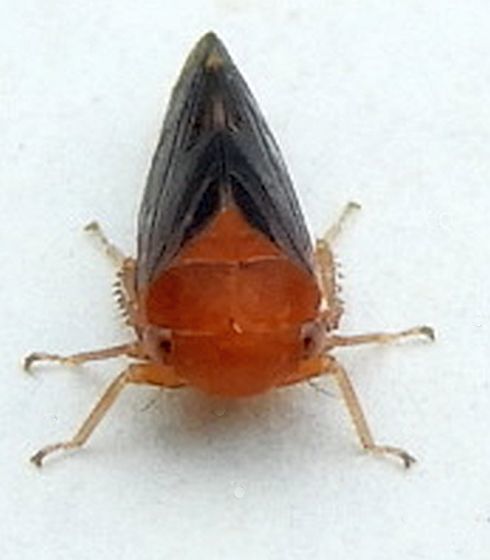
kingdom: Animalia
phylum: Arthropoda
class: Insecta
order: Hemiptera
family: Cicadellidae
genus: Oncopsis
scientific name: Oncopsis sobria
